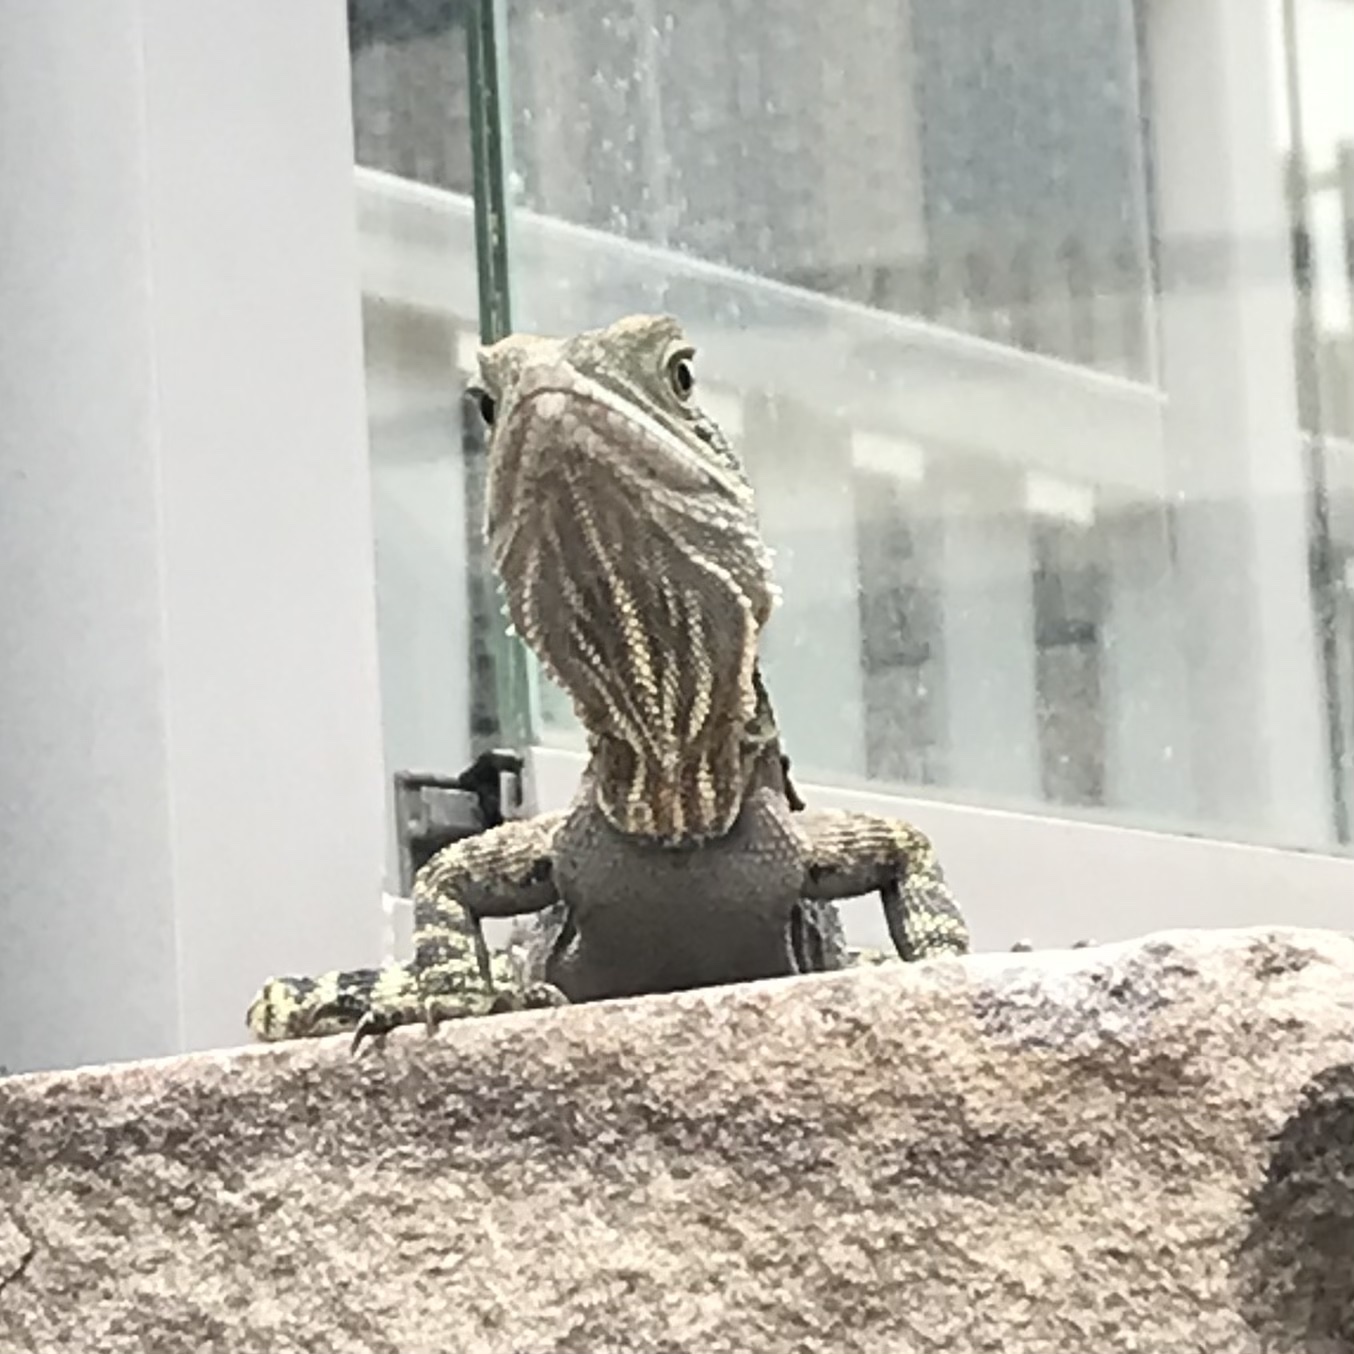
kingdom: Animalia
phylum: Chordata
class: Squamata
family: Agamidae
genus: Intellagama
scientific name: Intellagama lesueurii
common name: Eastern water dragon
